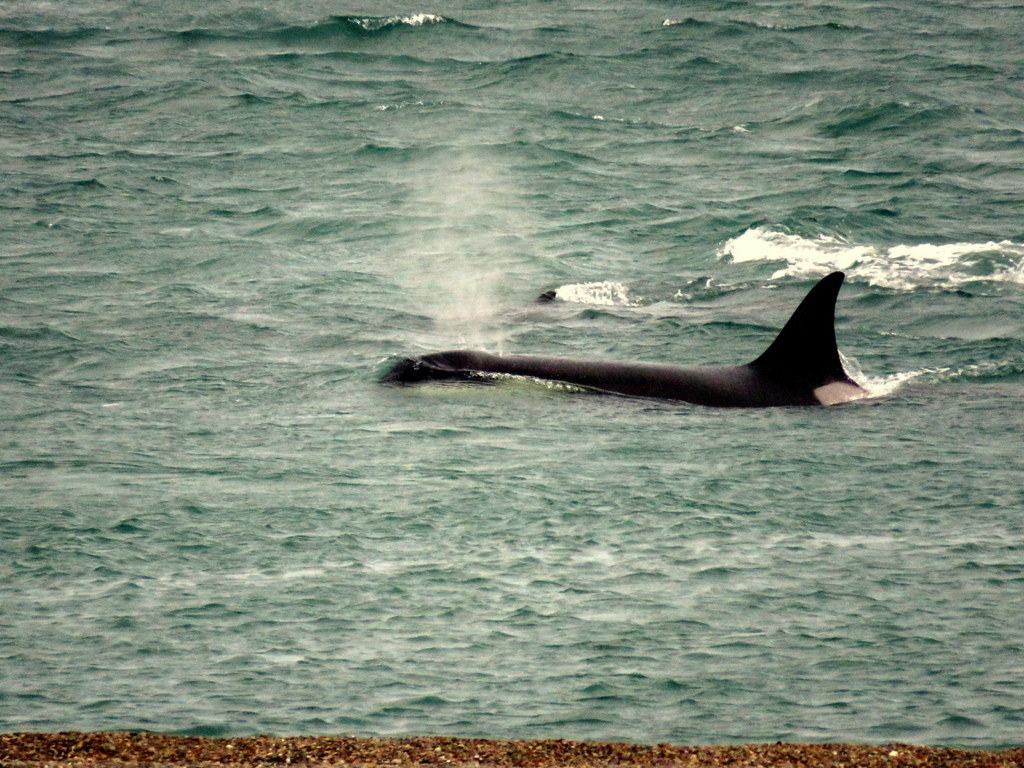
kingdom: Animalia
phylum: Chordata
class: Mammalia
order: Cetacea
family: Delphinidae
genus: Orcinus
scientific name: Orcinus orca
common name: Killer whale
